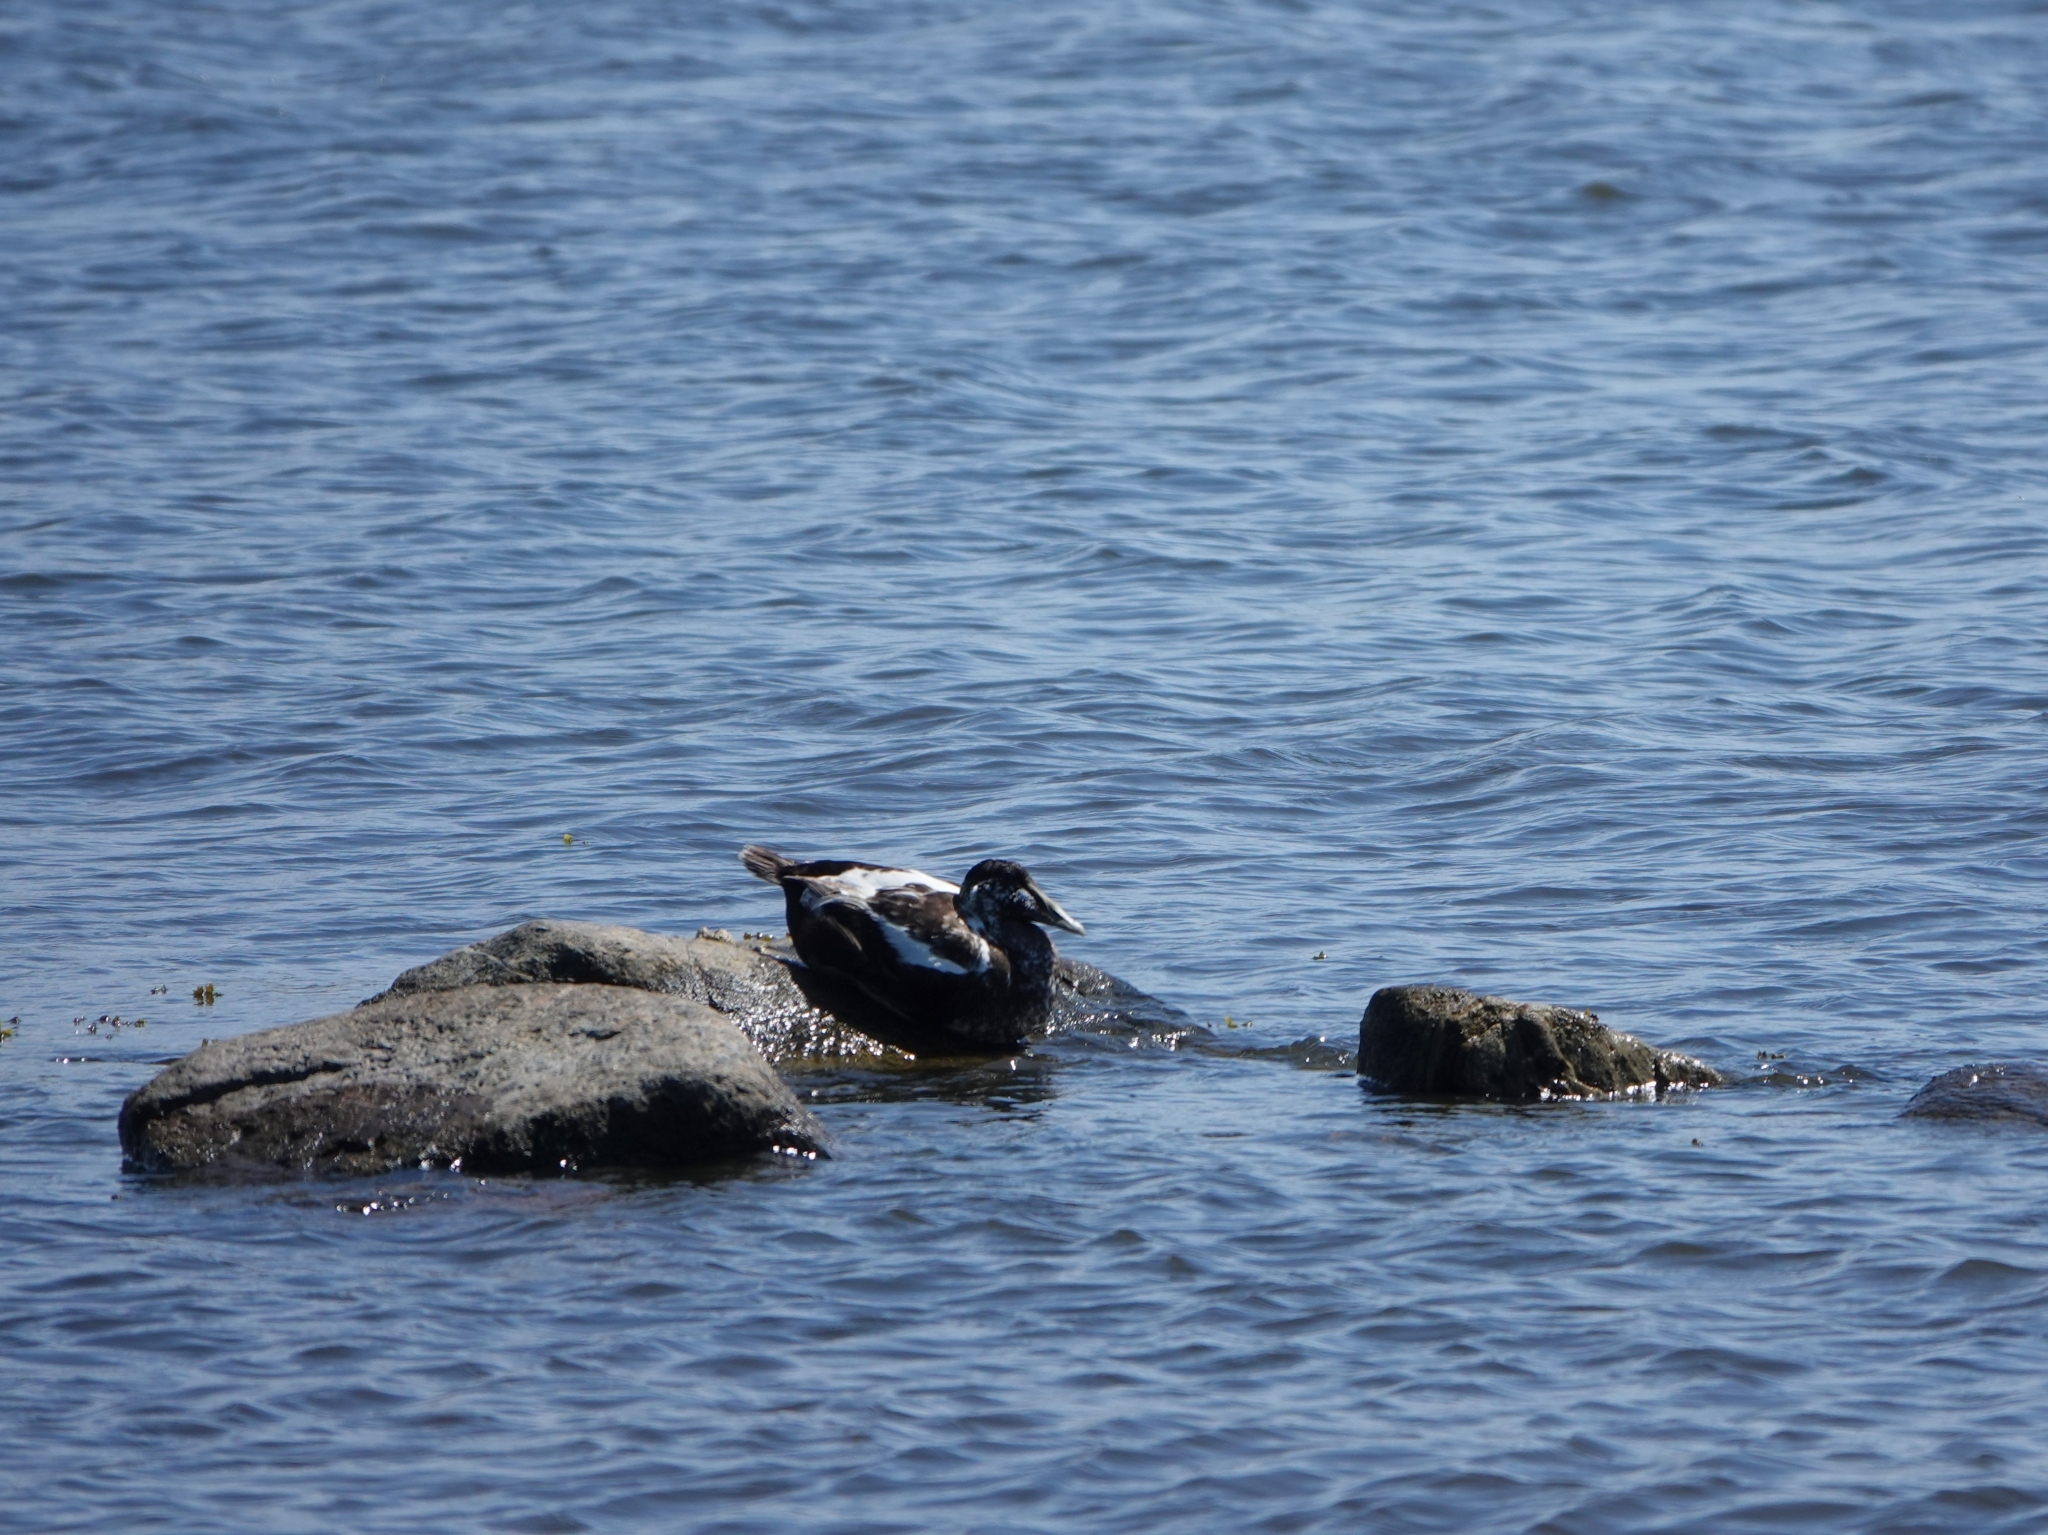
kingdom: Animalia
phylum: Chordata
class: Aves
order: Anseriformes
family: Anatidae
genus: Somateria
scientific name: Somateria mollissima
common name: Common eider
